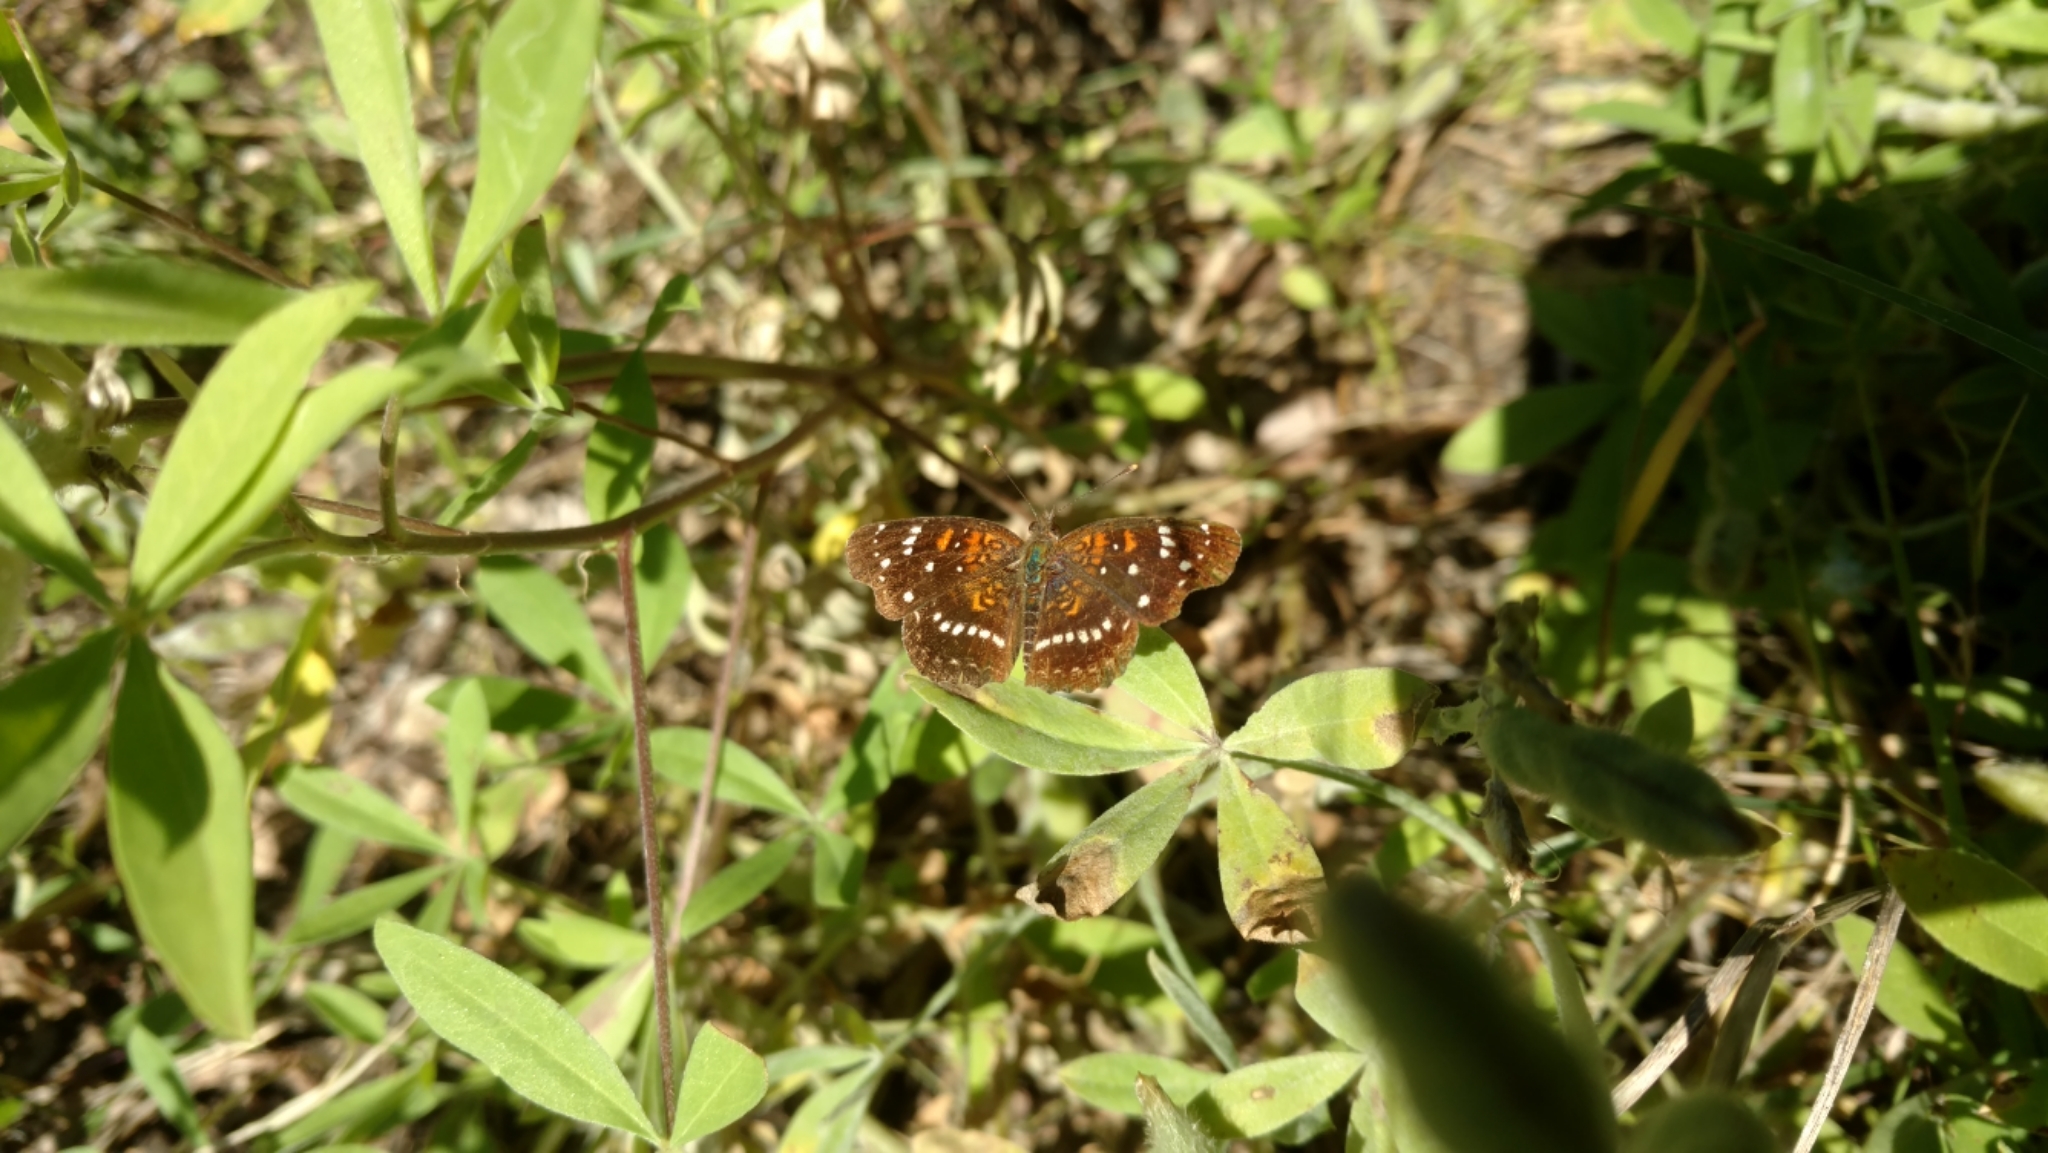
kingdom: Animalia
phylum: Arthropoda
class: Insecta
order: Lepidoptera
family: Nymphalidae
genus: Anthanassa
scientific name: Anthanassa texana
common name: Texan crescent
